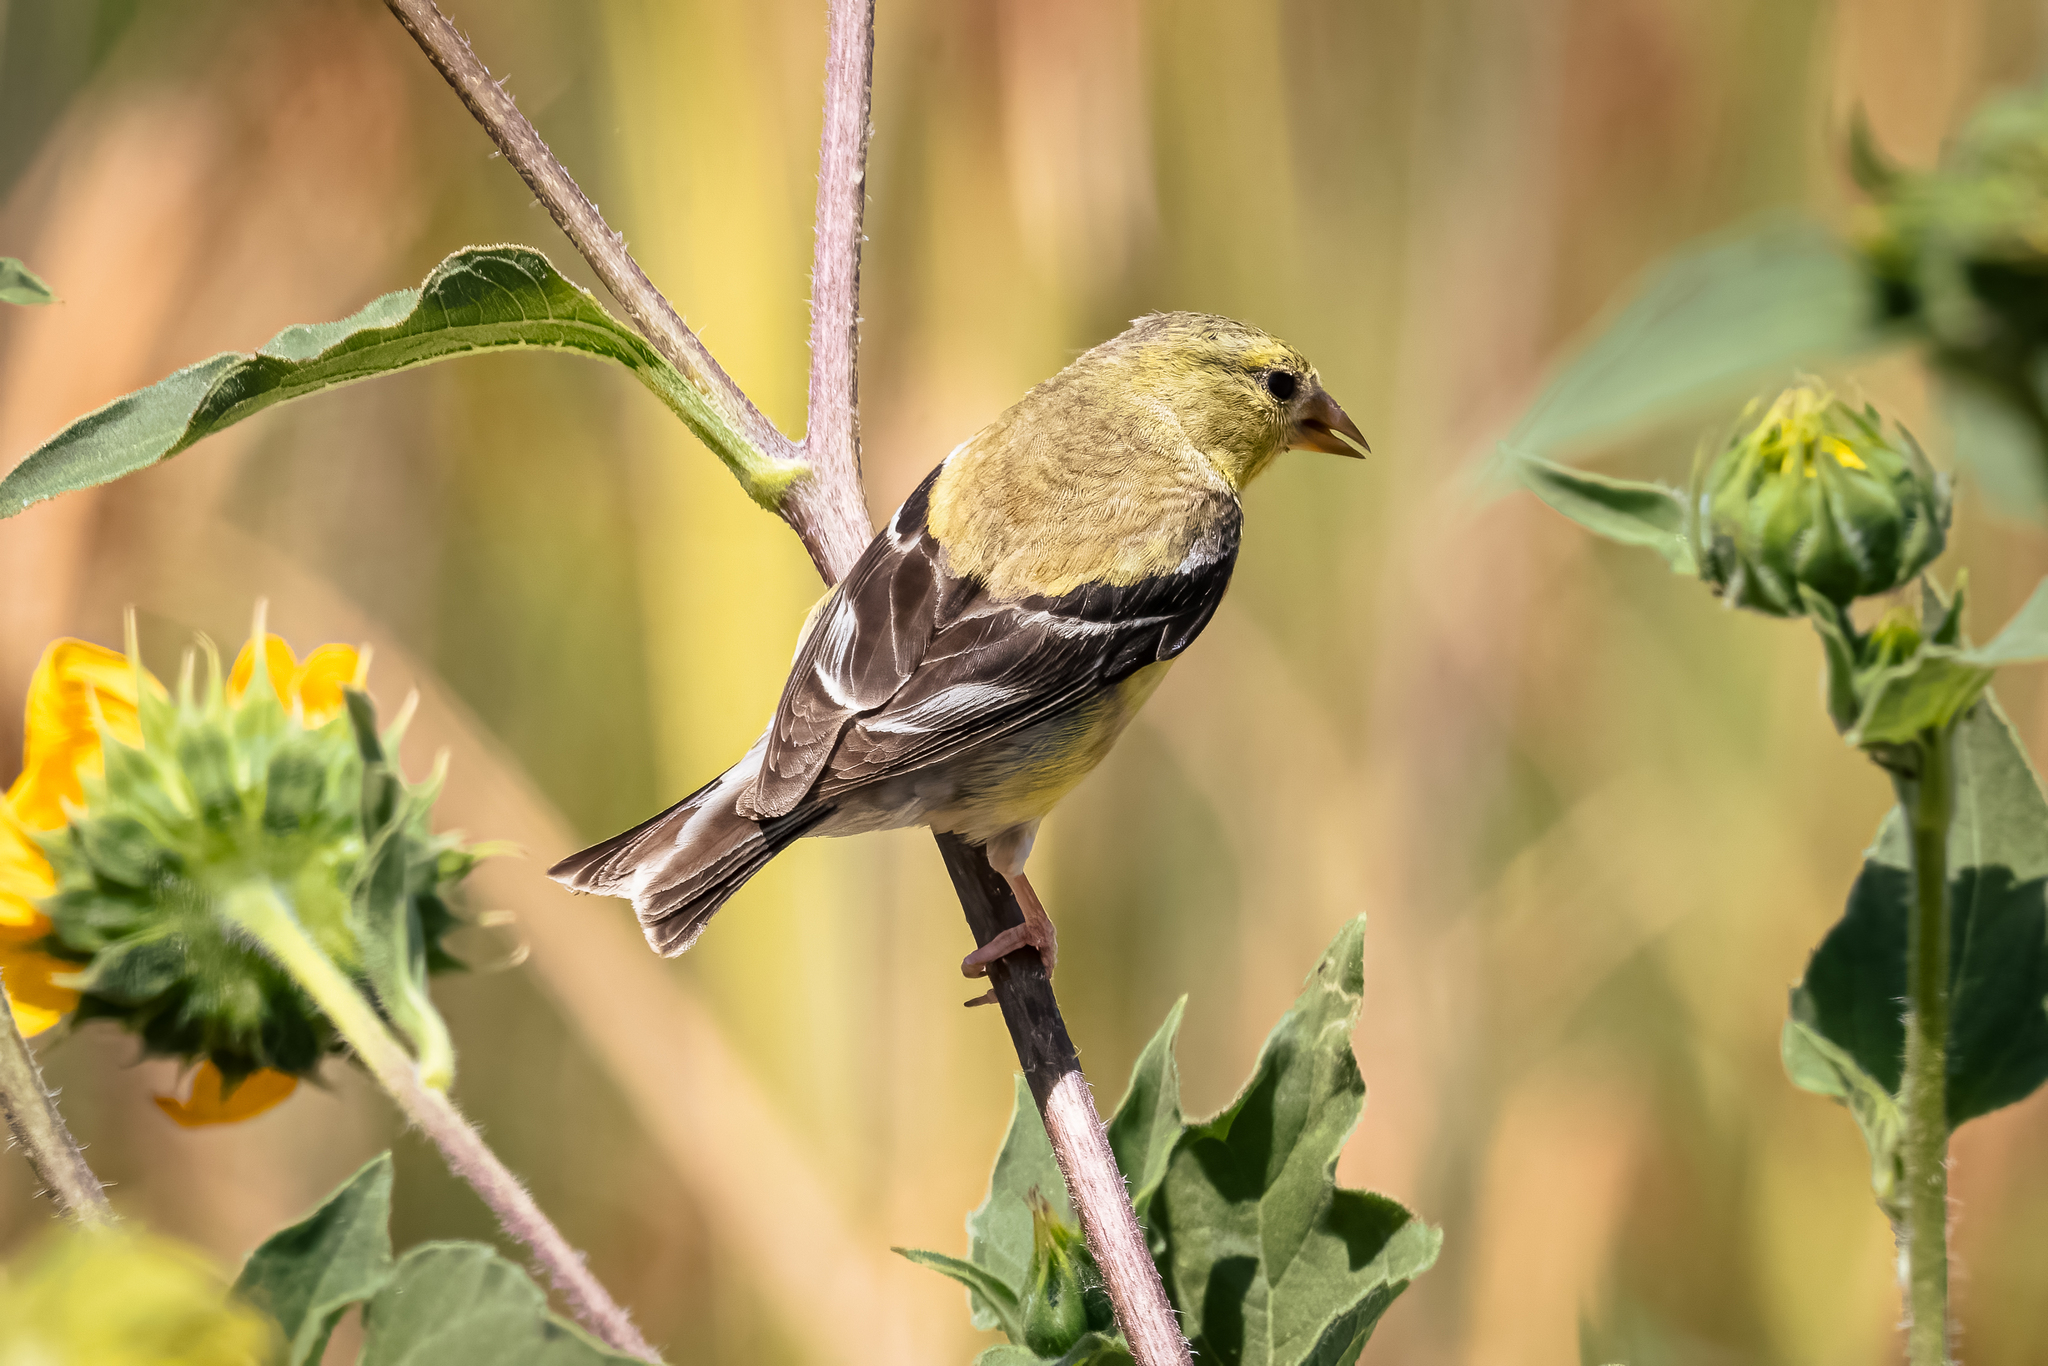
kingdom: Animalia
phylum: Chordata
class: Aves
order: Passeriformes
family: Fringillidae
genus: Spinus
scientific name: Spinus psaltria
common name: Lesser goldfinch
